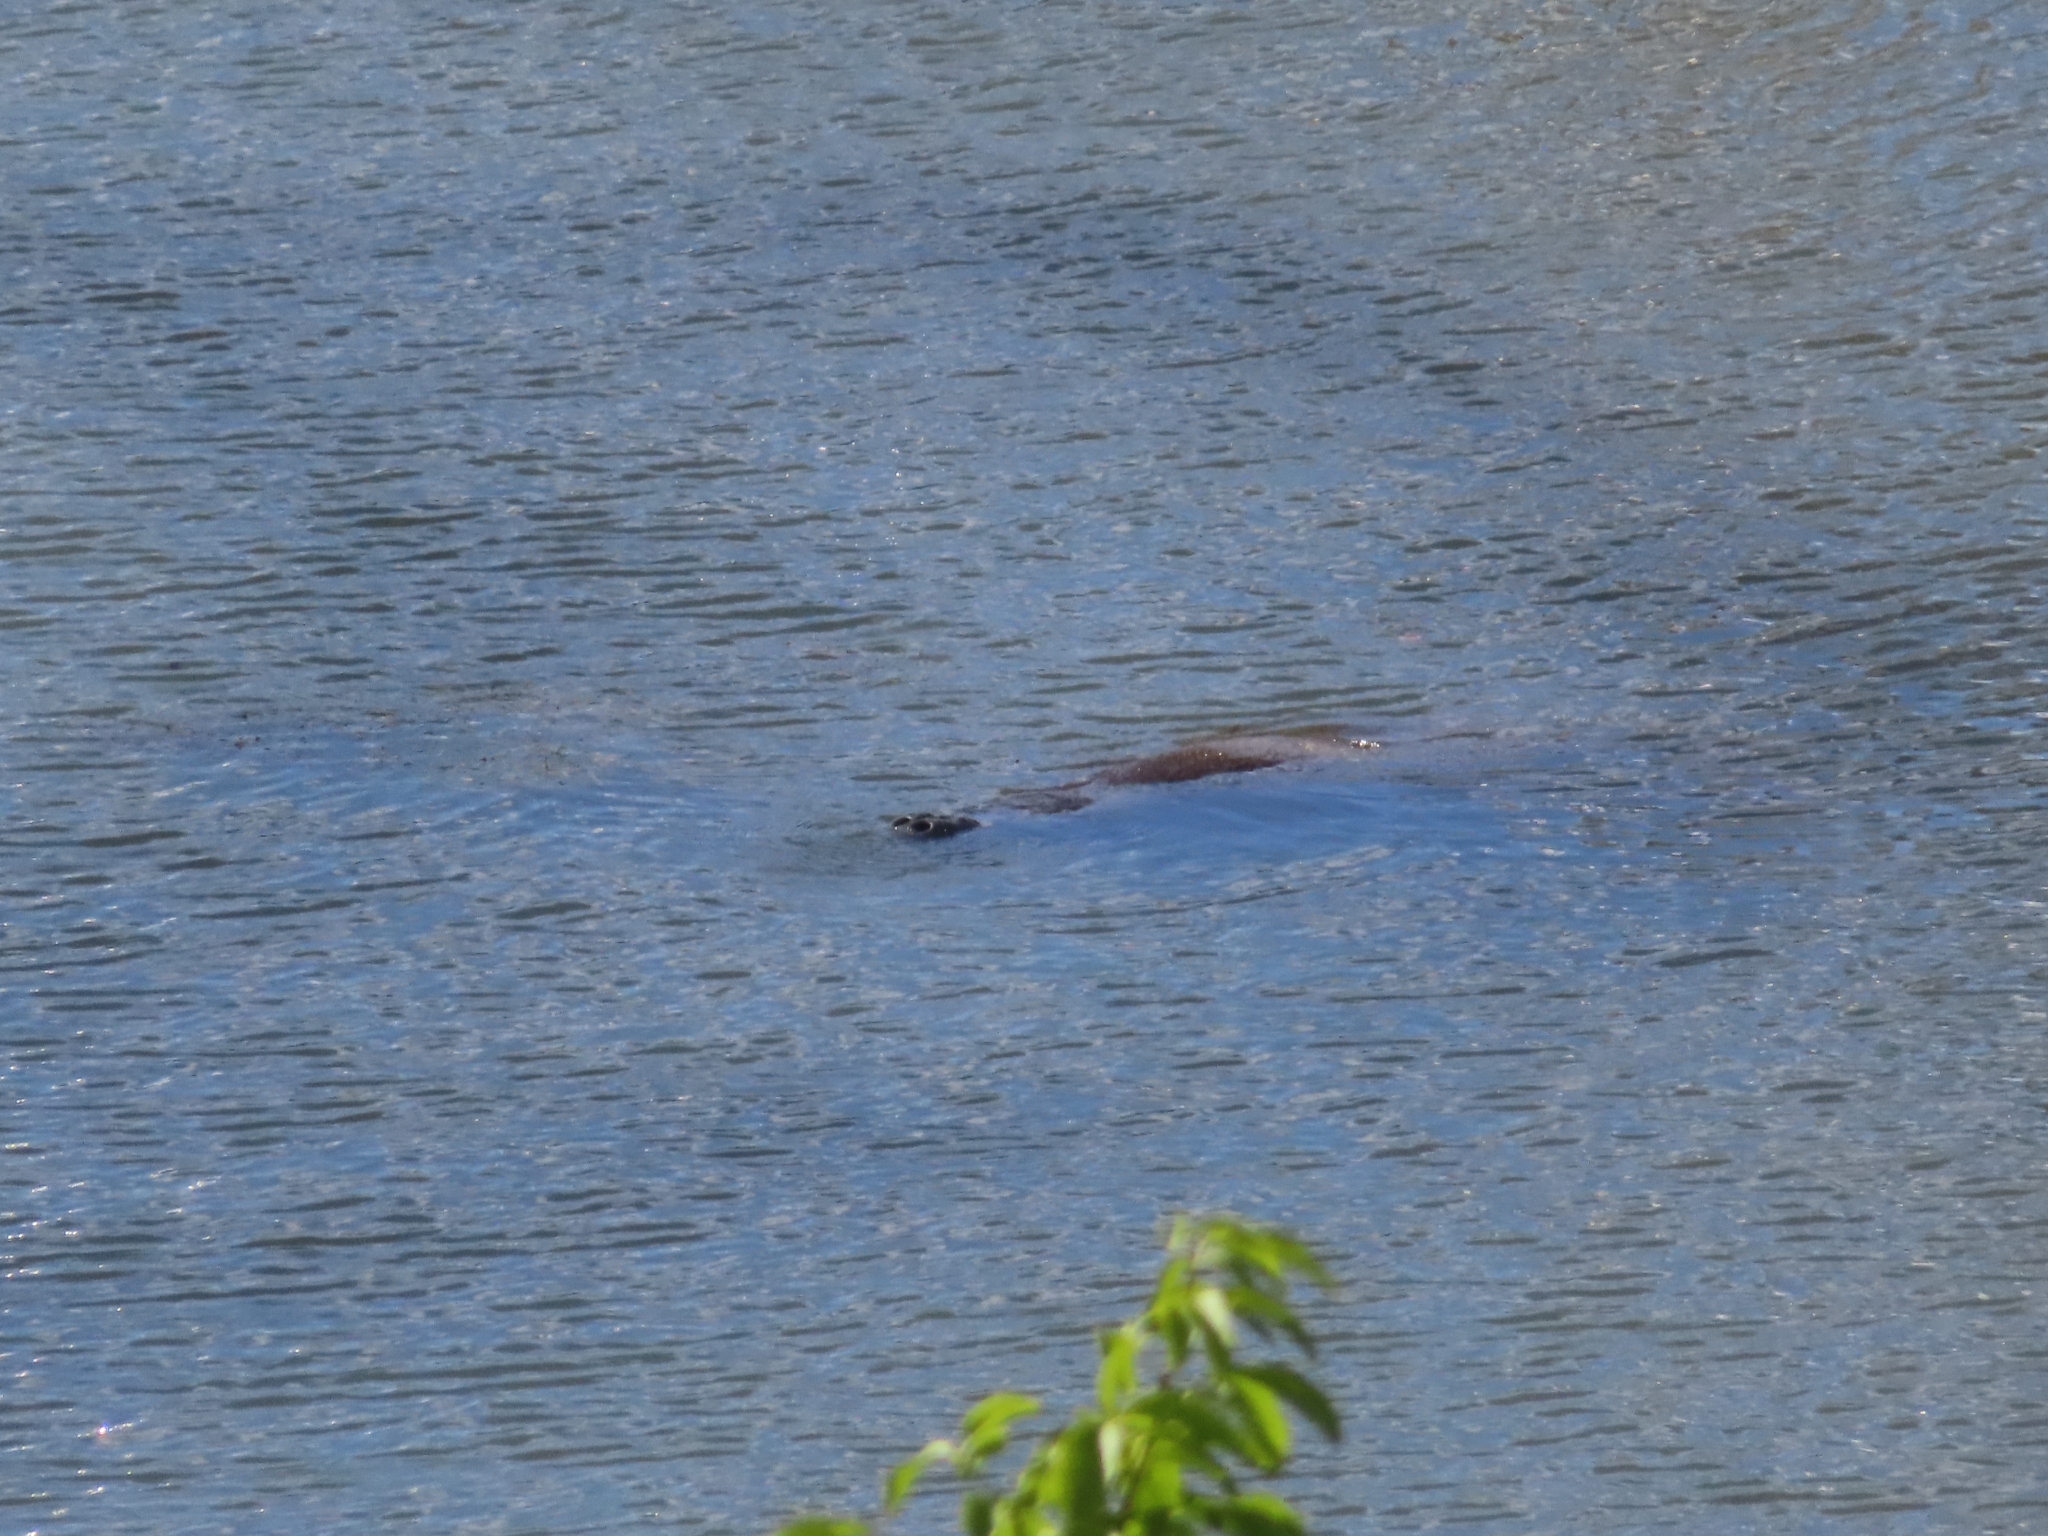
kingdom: Animalia
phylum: Chordata
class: Mammalia
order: Sirenia
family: Trichechidae
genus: Trichechus
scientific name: Trichechus manatus
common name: West indian manatee
